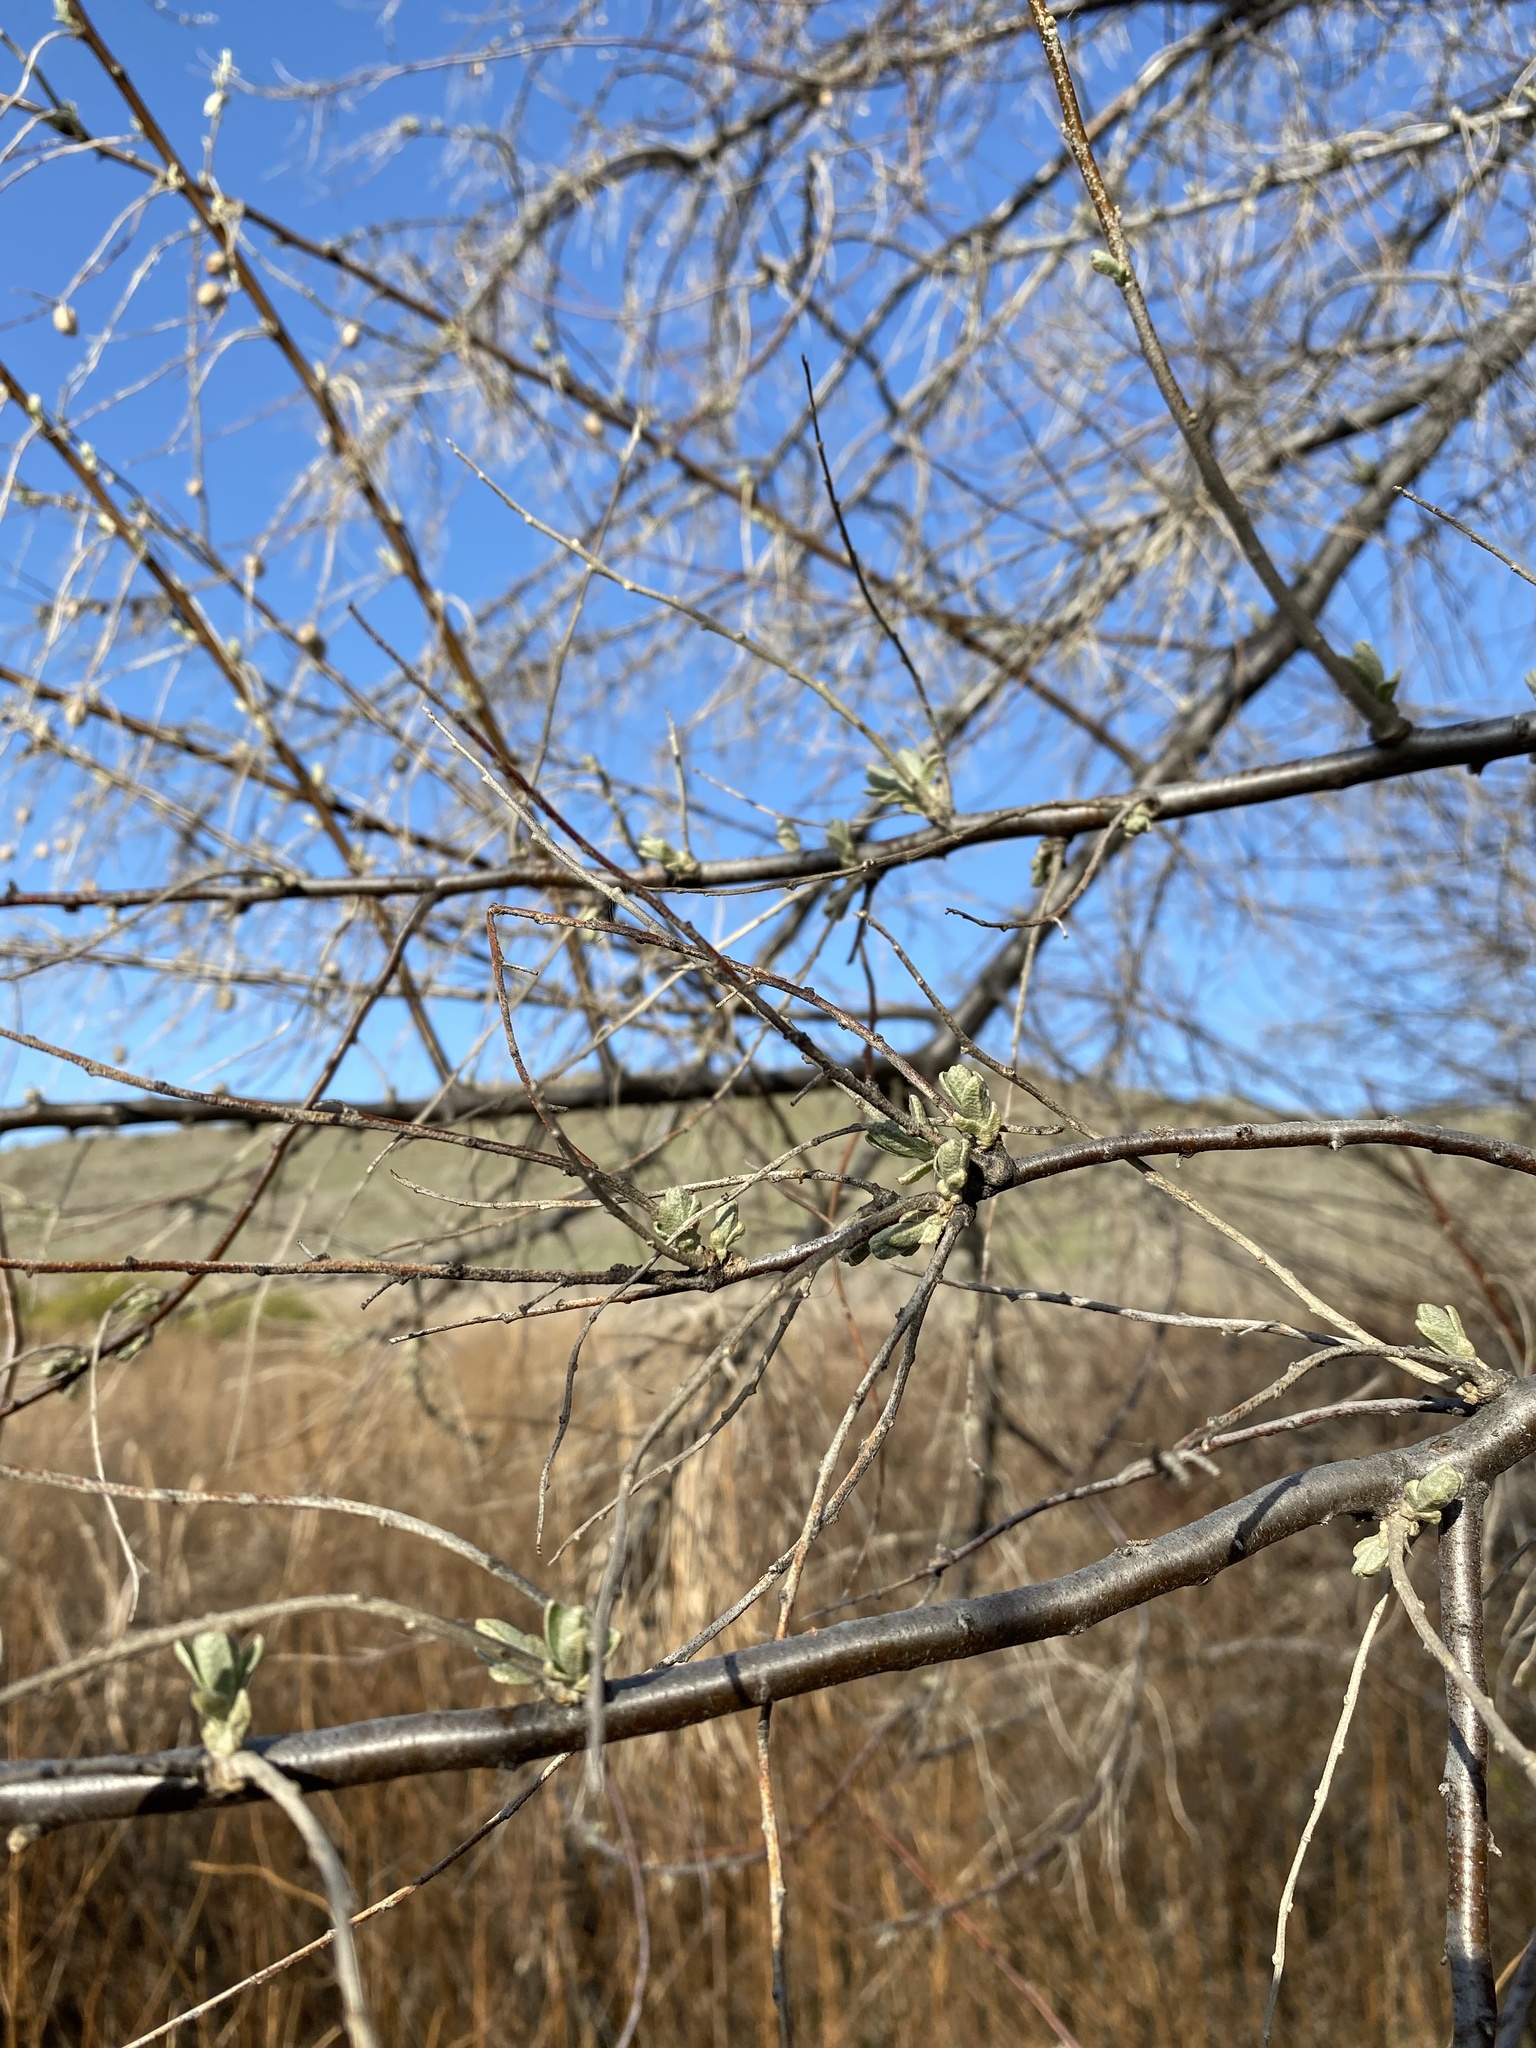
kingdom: Plantae
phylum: Tracheophyta
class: Magnoliopsida
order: Rosales
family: Elaeagnaceae
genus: Elaeagnus
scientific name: Elaeagnus angustifolia
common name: Russian olive
